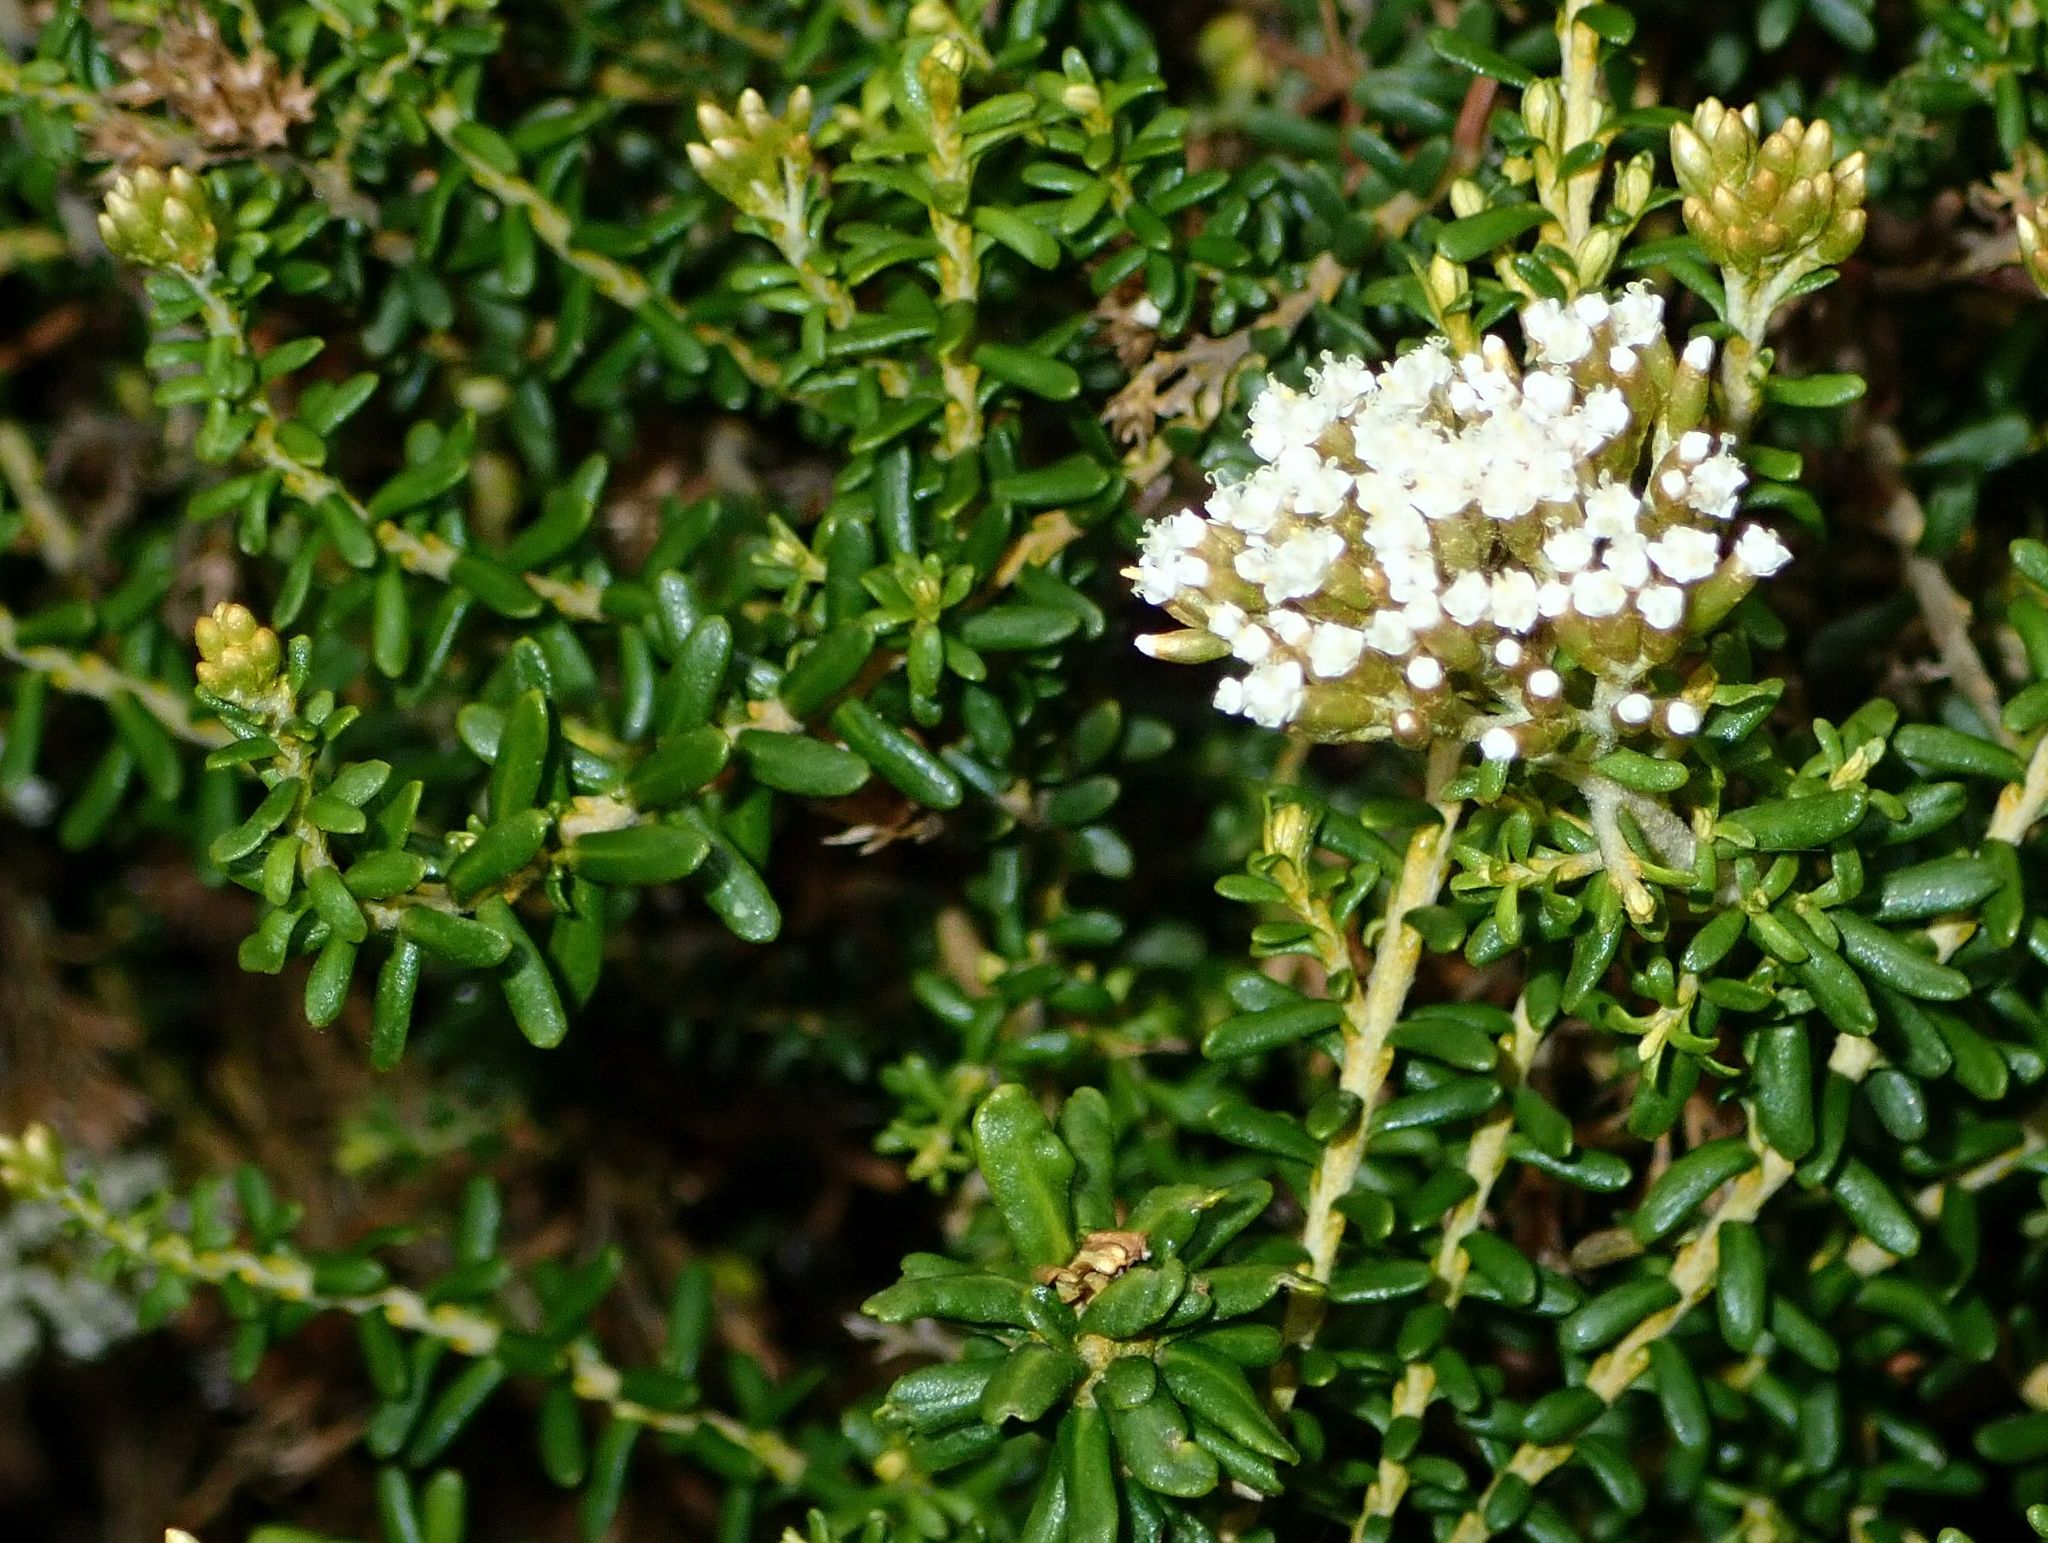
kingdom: Plantae
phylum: Tracheophyta
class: Magnoliopsida
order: Asterales
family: Asteraceae
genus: Ozothamnus
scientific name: Ozothamnus leptophyllus
